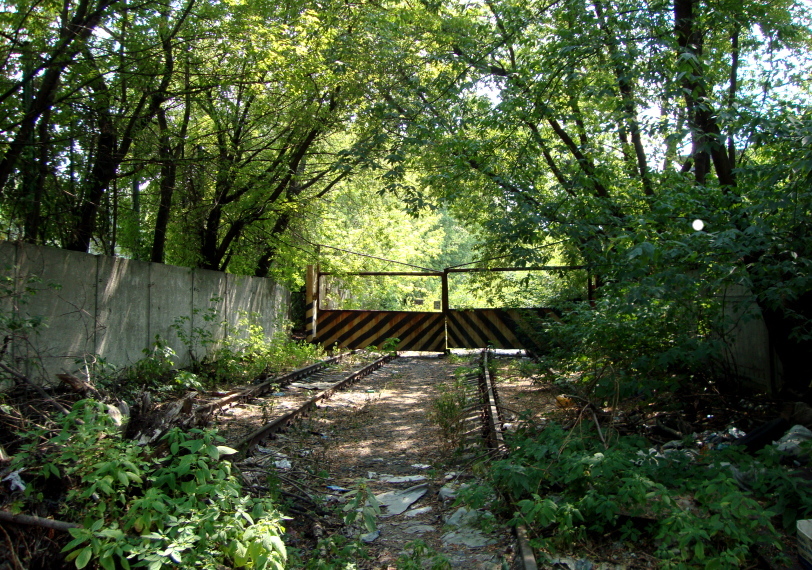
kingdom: Plantae
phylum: Tracheophyta
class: Magnoliopsida
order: Sapindales
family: Sapindaceae
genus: Acer
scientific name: Acer negundo
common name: Ashleaf maple
